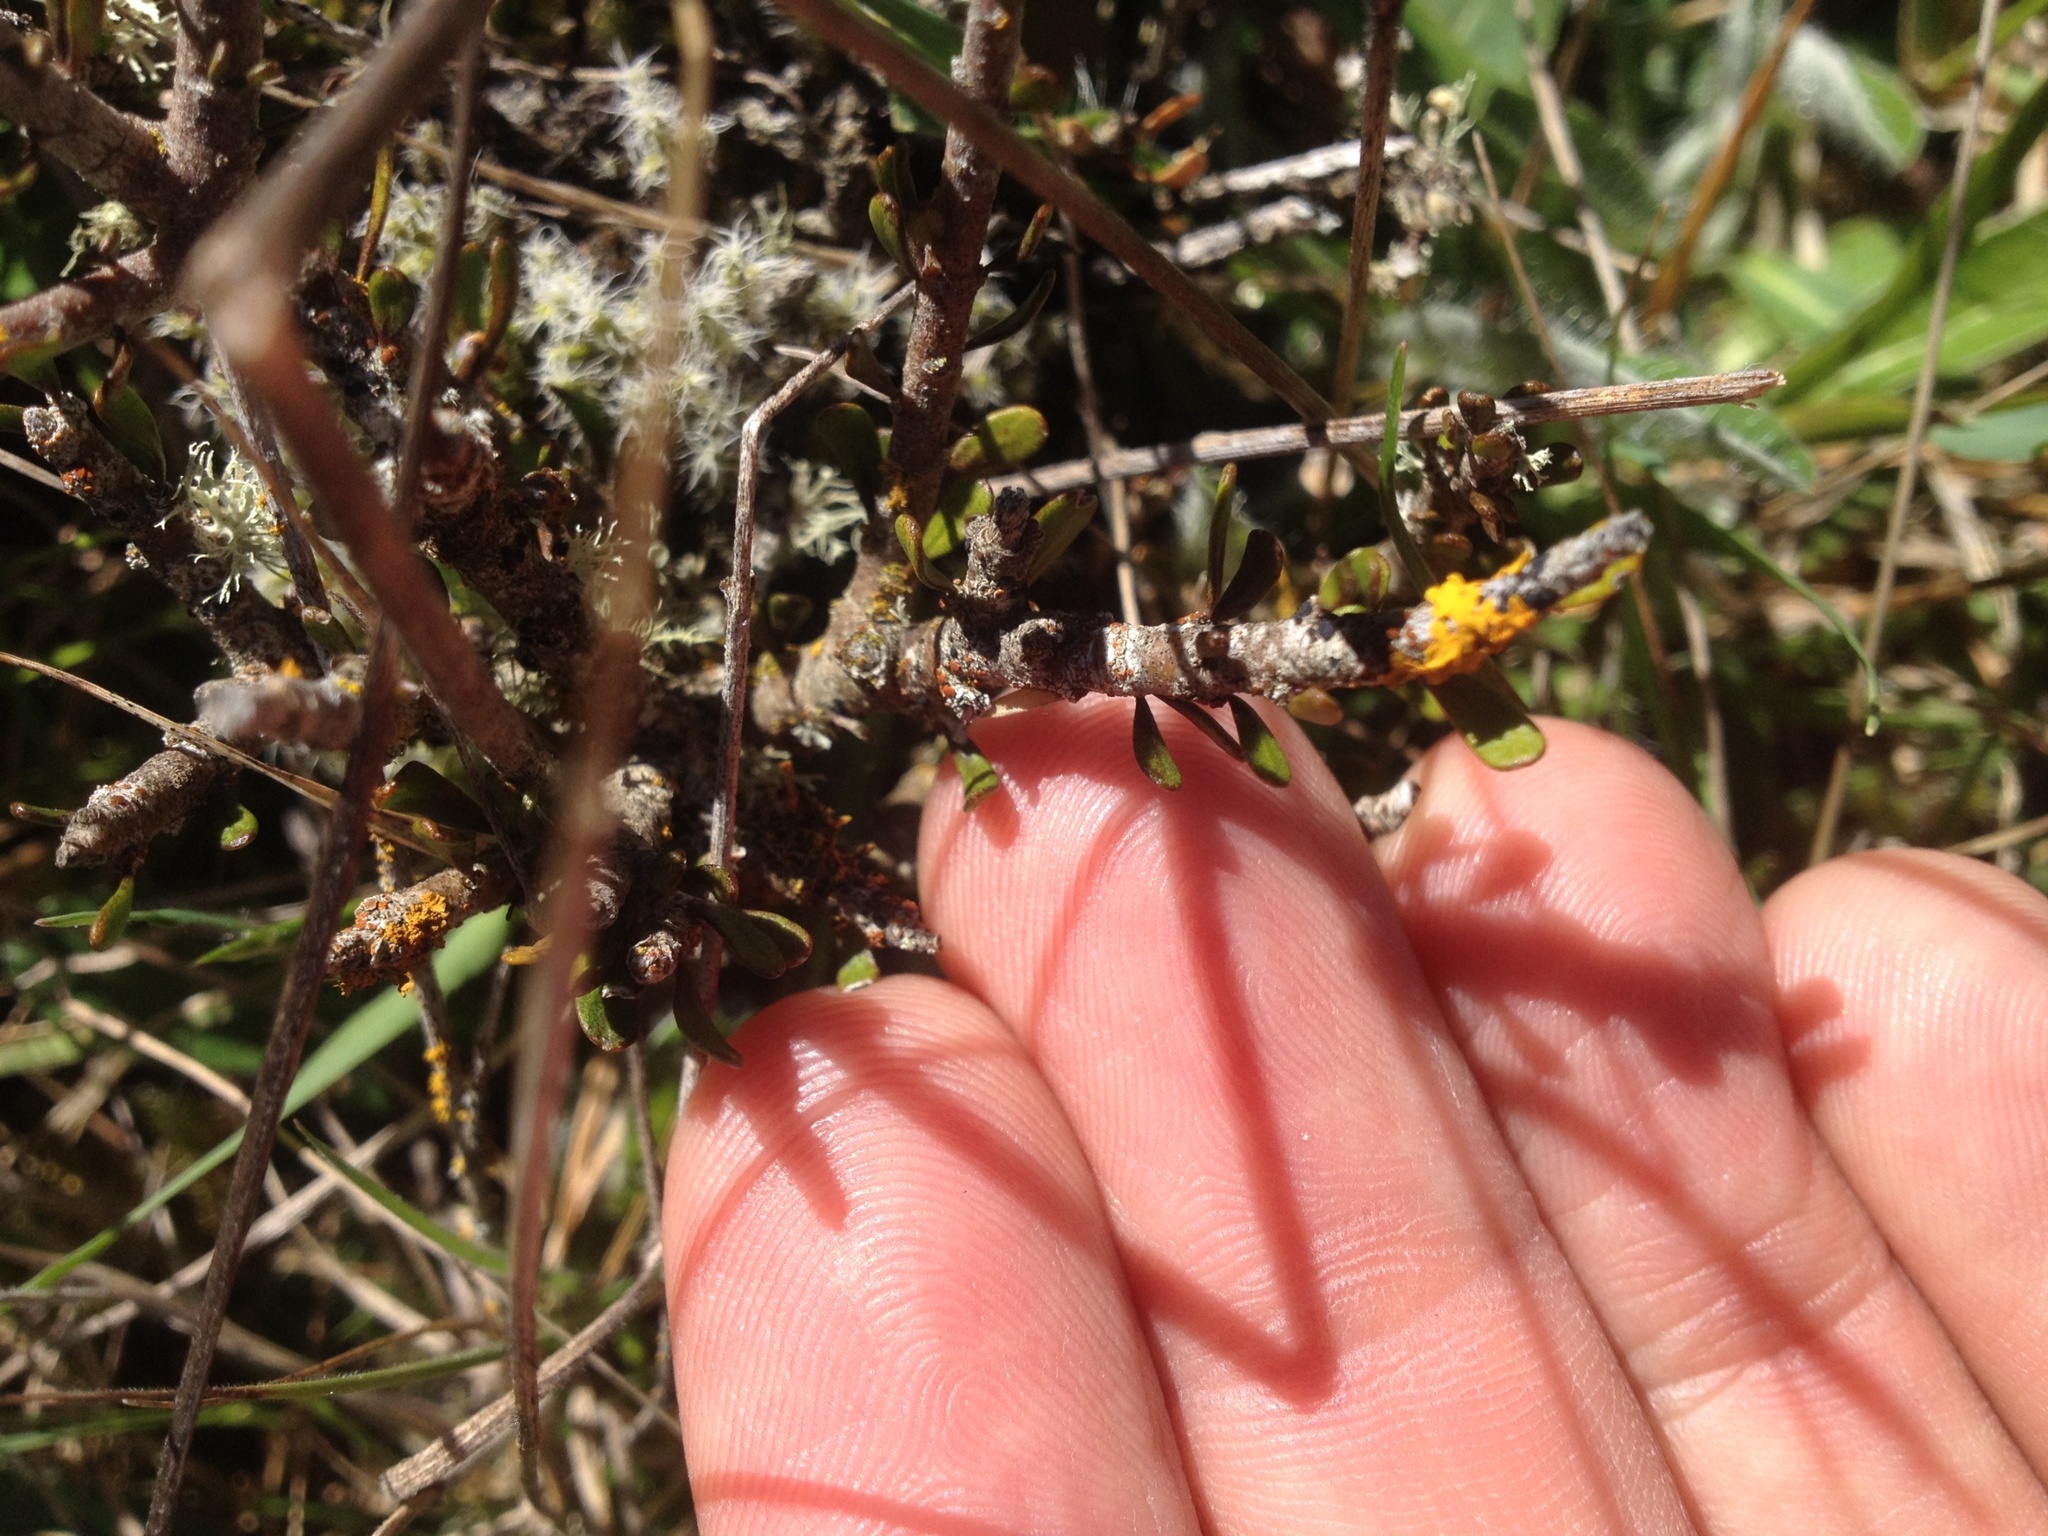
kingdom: Plantae
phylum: Tracheophyta
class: Magnoliopsida
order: Malpighiales
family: Violaceae
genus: Melicytus
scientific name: Melicytus alpinus
